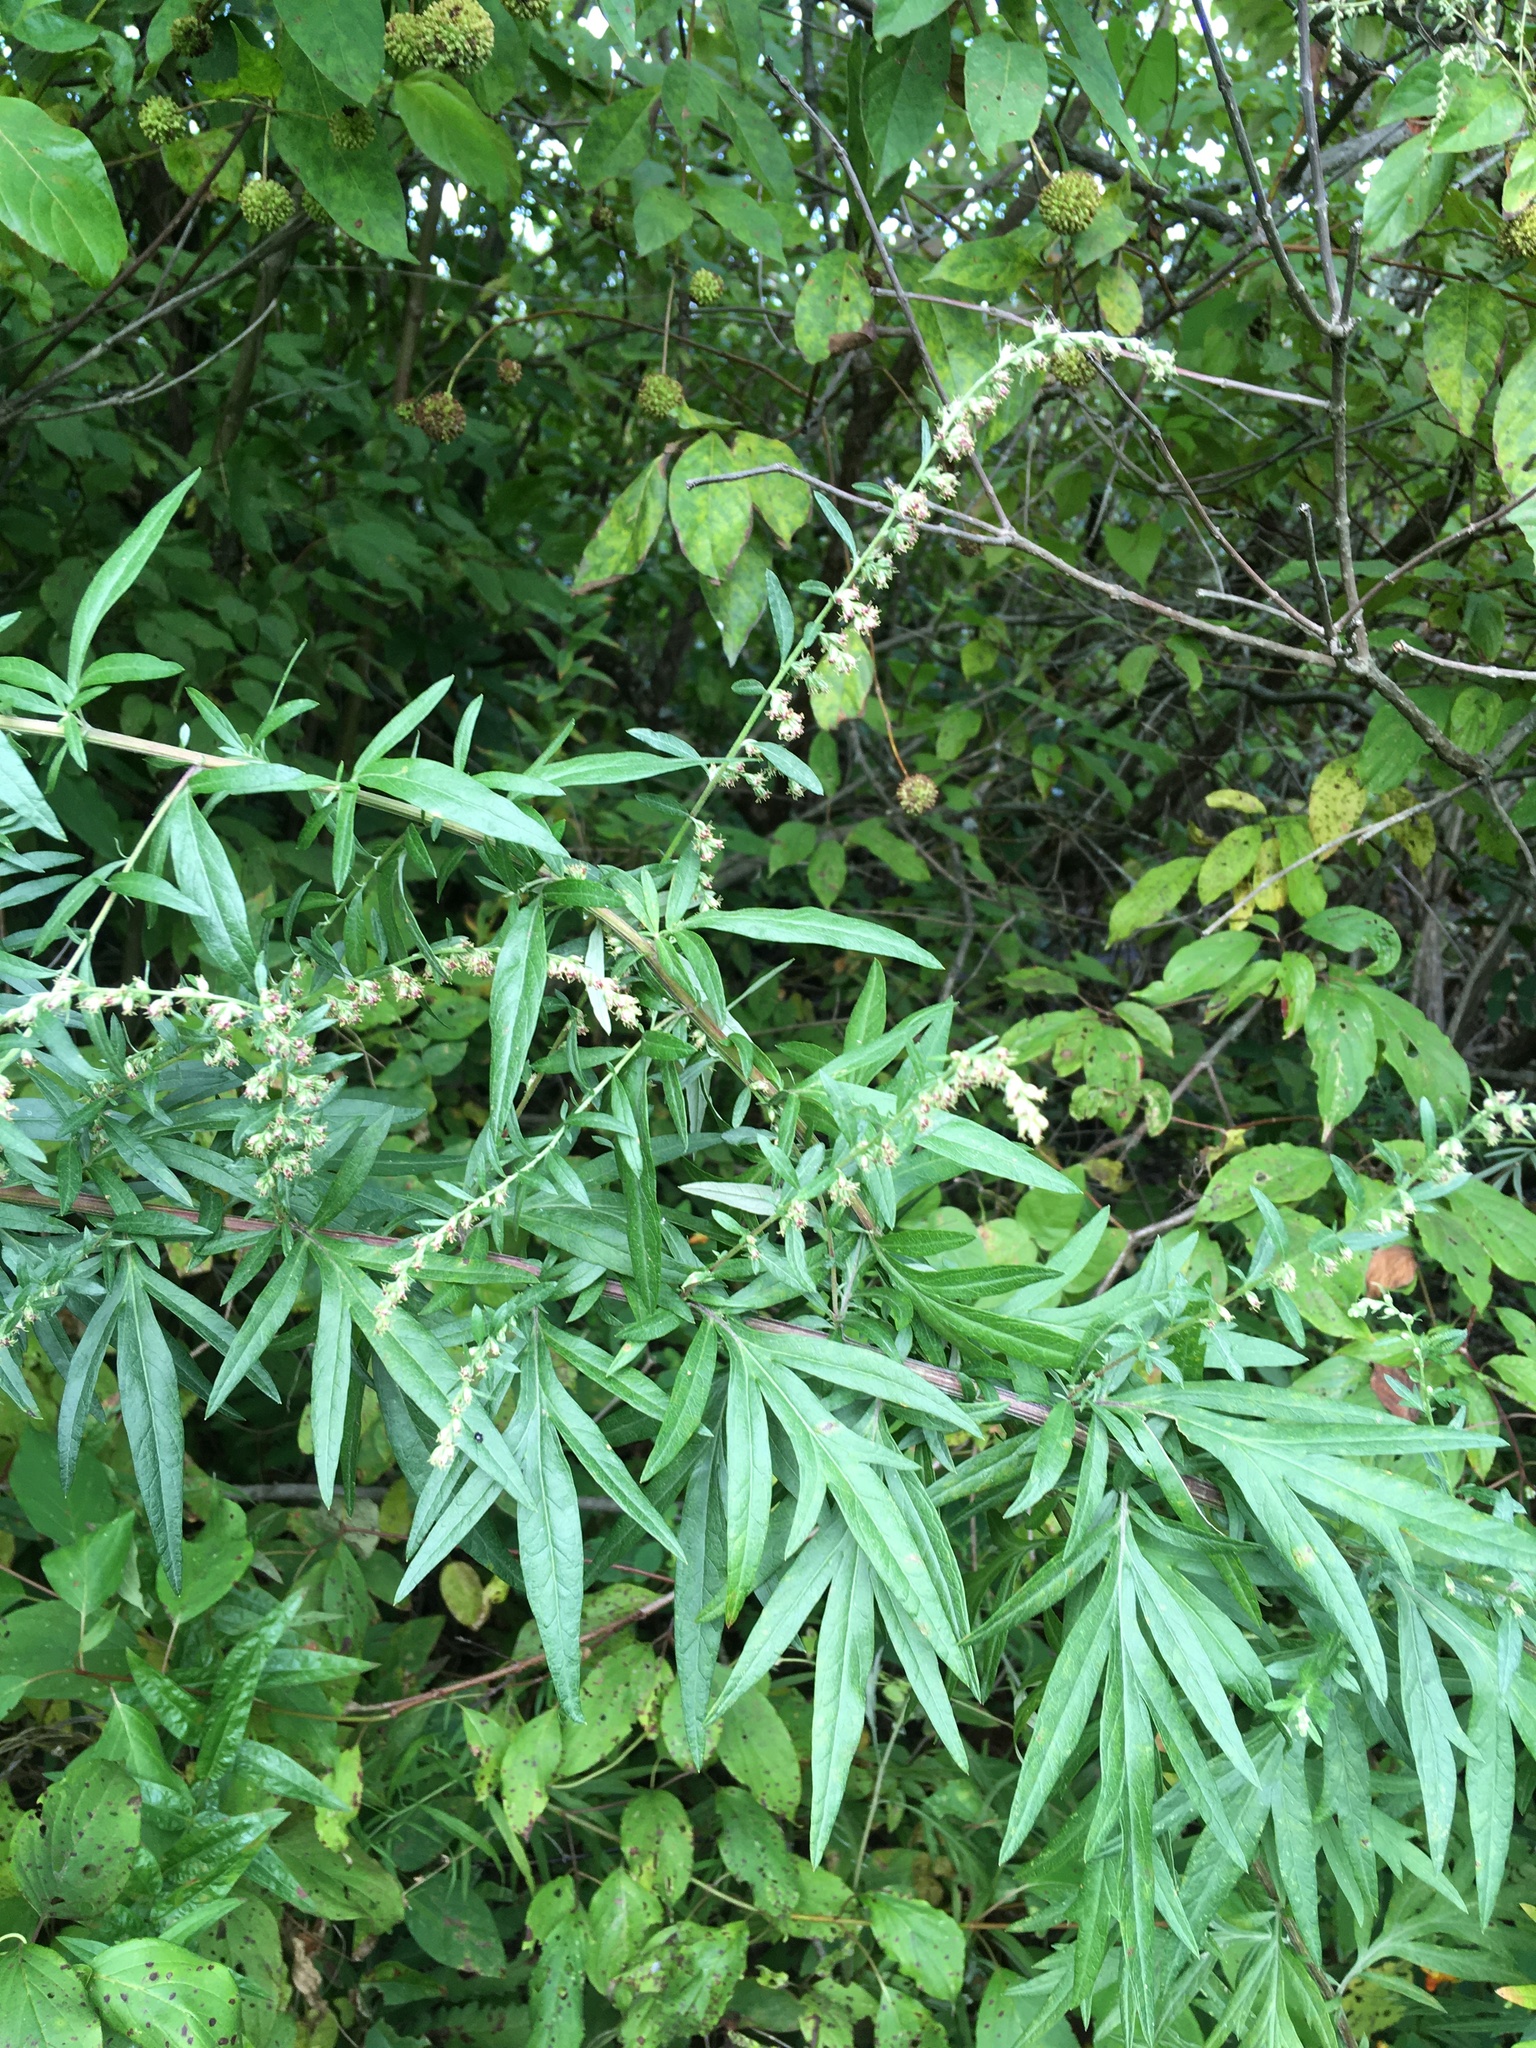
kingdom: Plantae
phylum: Tracheophyta
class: Magnoliopsida
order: Asterales
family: Asteraceae
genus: Artemisia
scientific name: Artemisia vulgaris
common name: Mugwort
